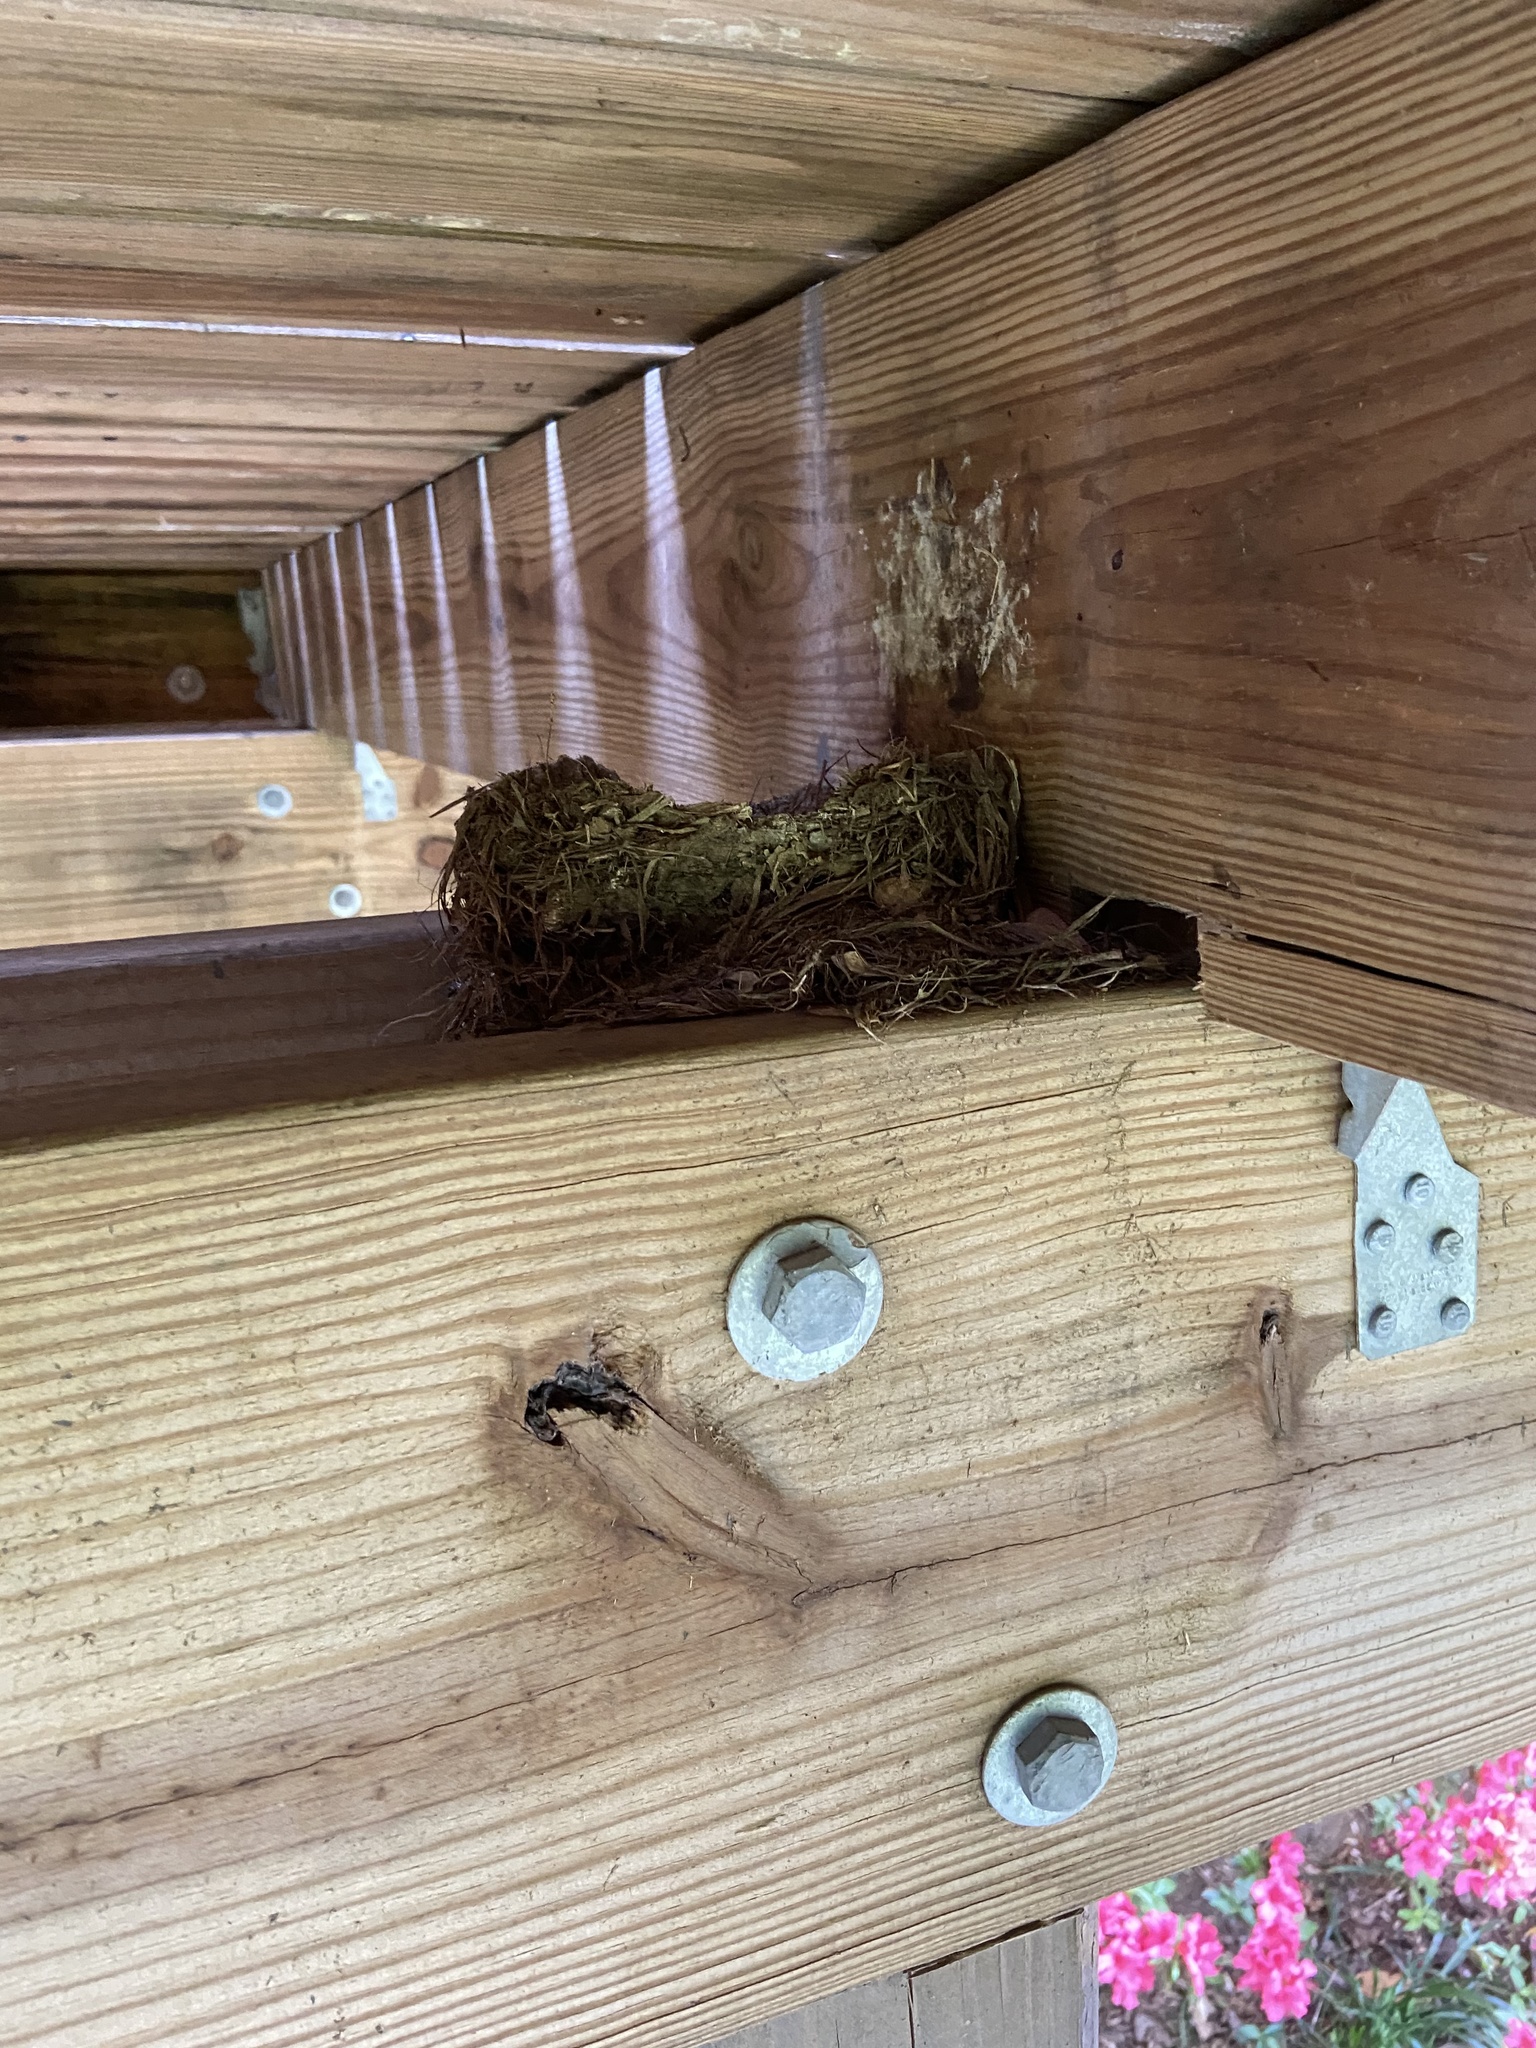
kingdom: Animalia
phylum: Chordata
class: Aves
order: Passeriformes
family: Turdidae
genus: Turdus
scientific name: Turdus migratorius
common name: American robin
